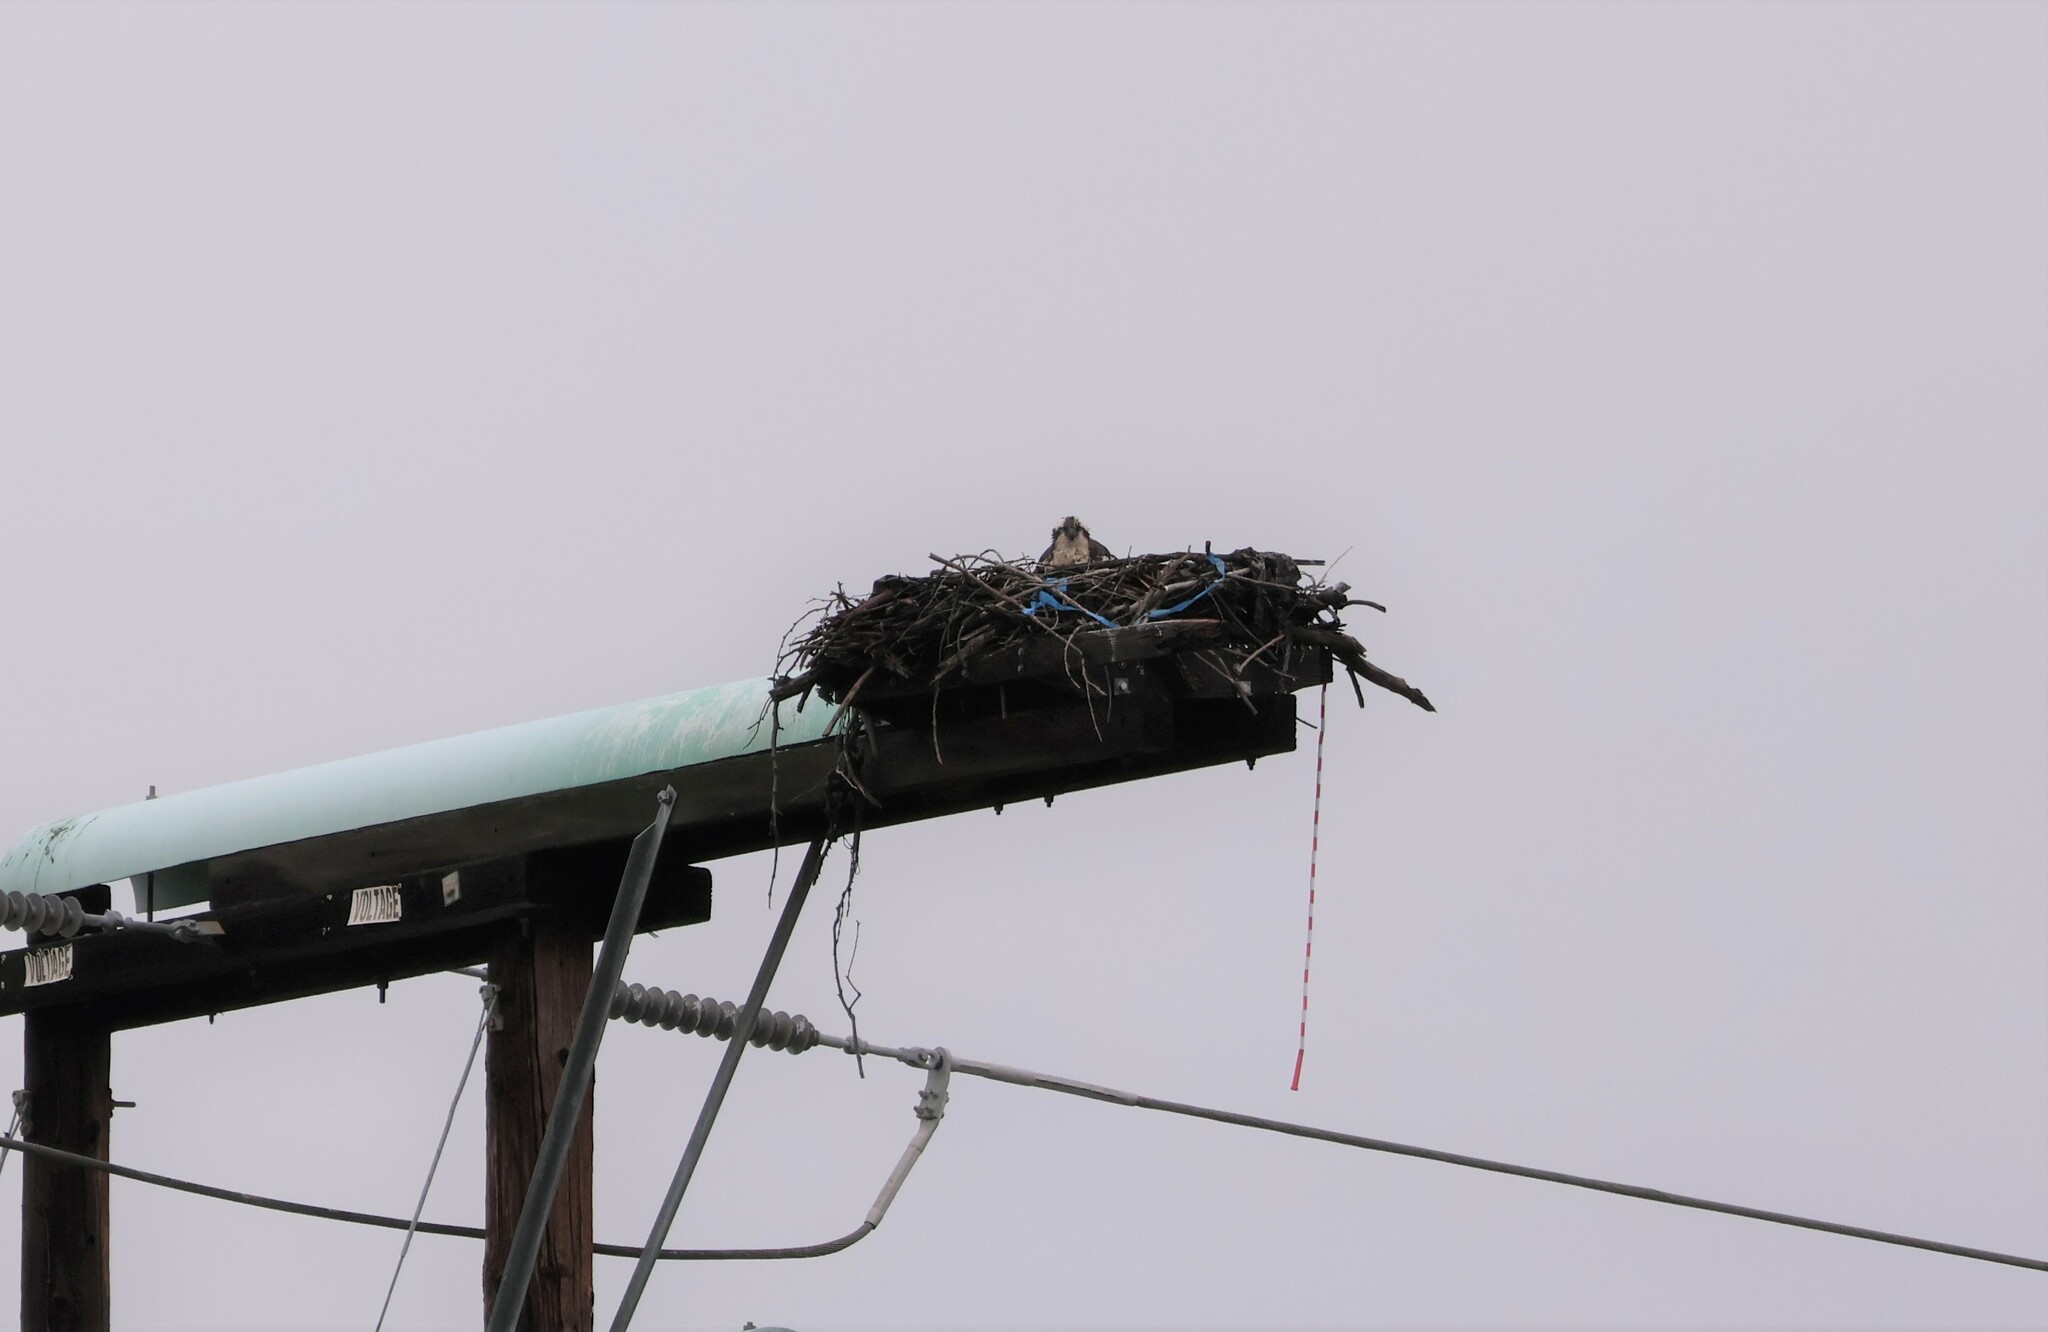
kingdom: Animalia
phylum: Chordata
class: Aves
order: Accipitriformes
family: Pandionidae
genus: Pandion
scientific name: Pandion haliaetus
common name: Osprey
